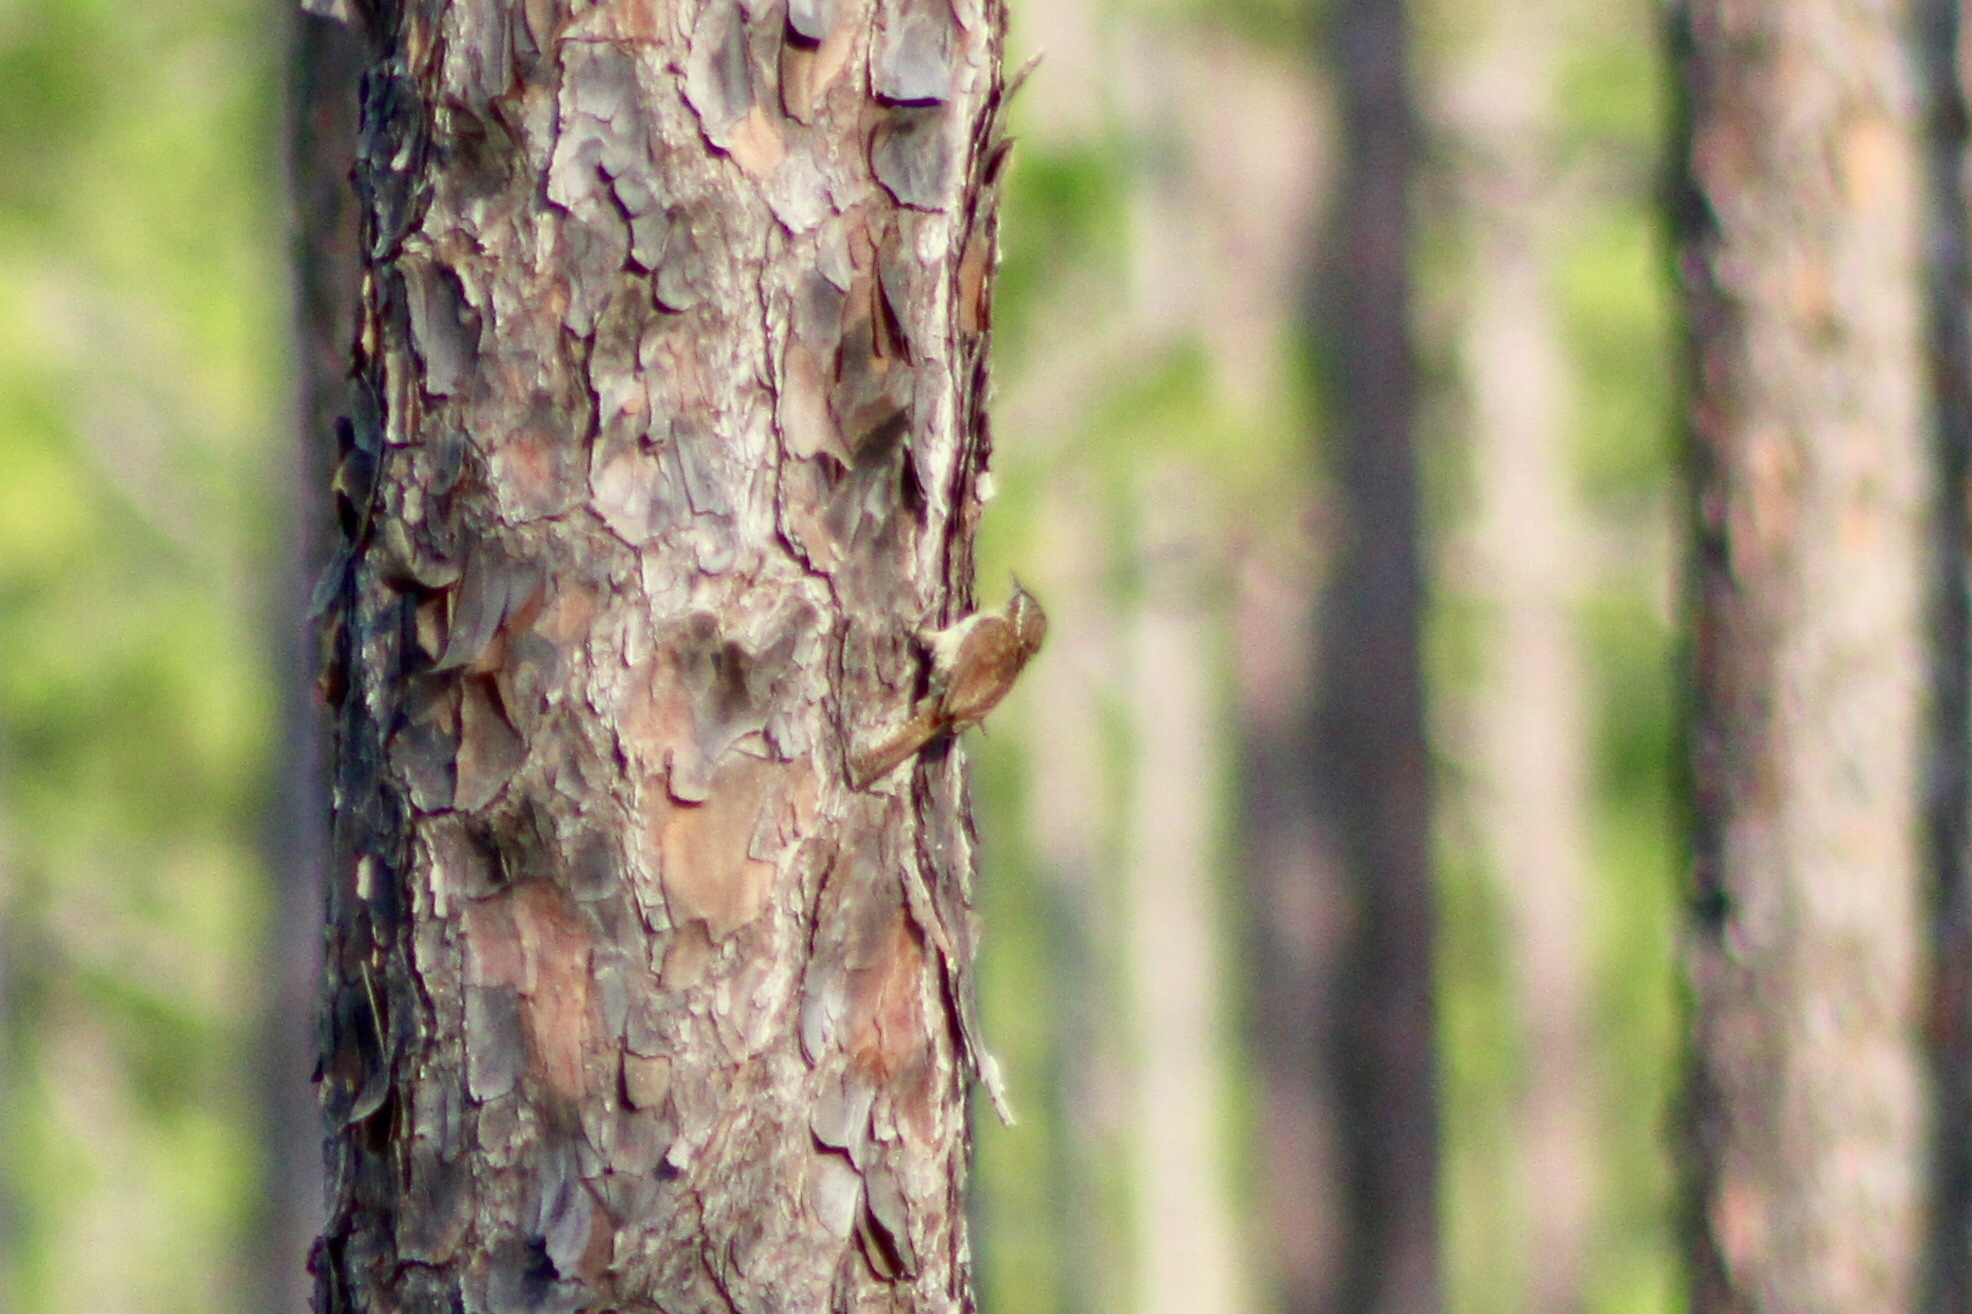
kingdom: Animalia
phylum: Chordata
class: Aves
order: Passeriformes
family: Troglodytidae
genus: Thryothorus
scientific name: Thryothorus ludovicianus
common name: Carolina wren
